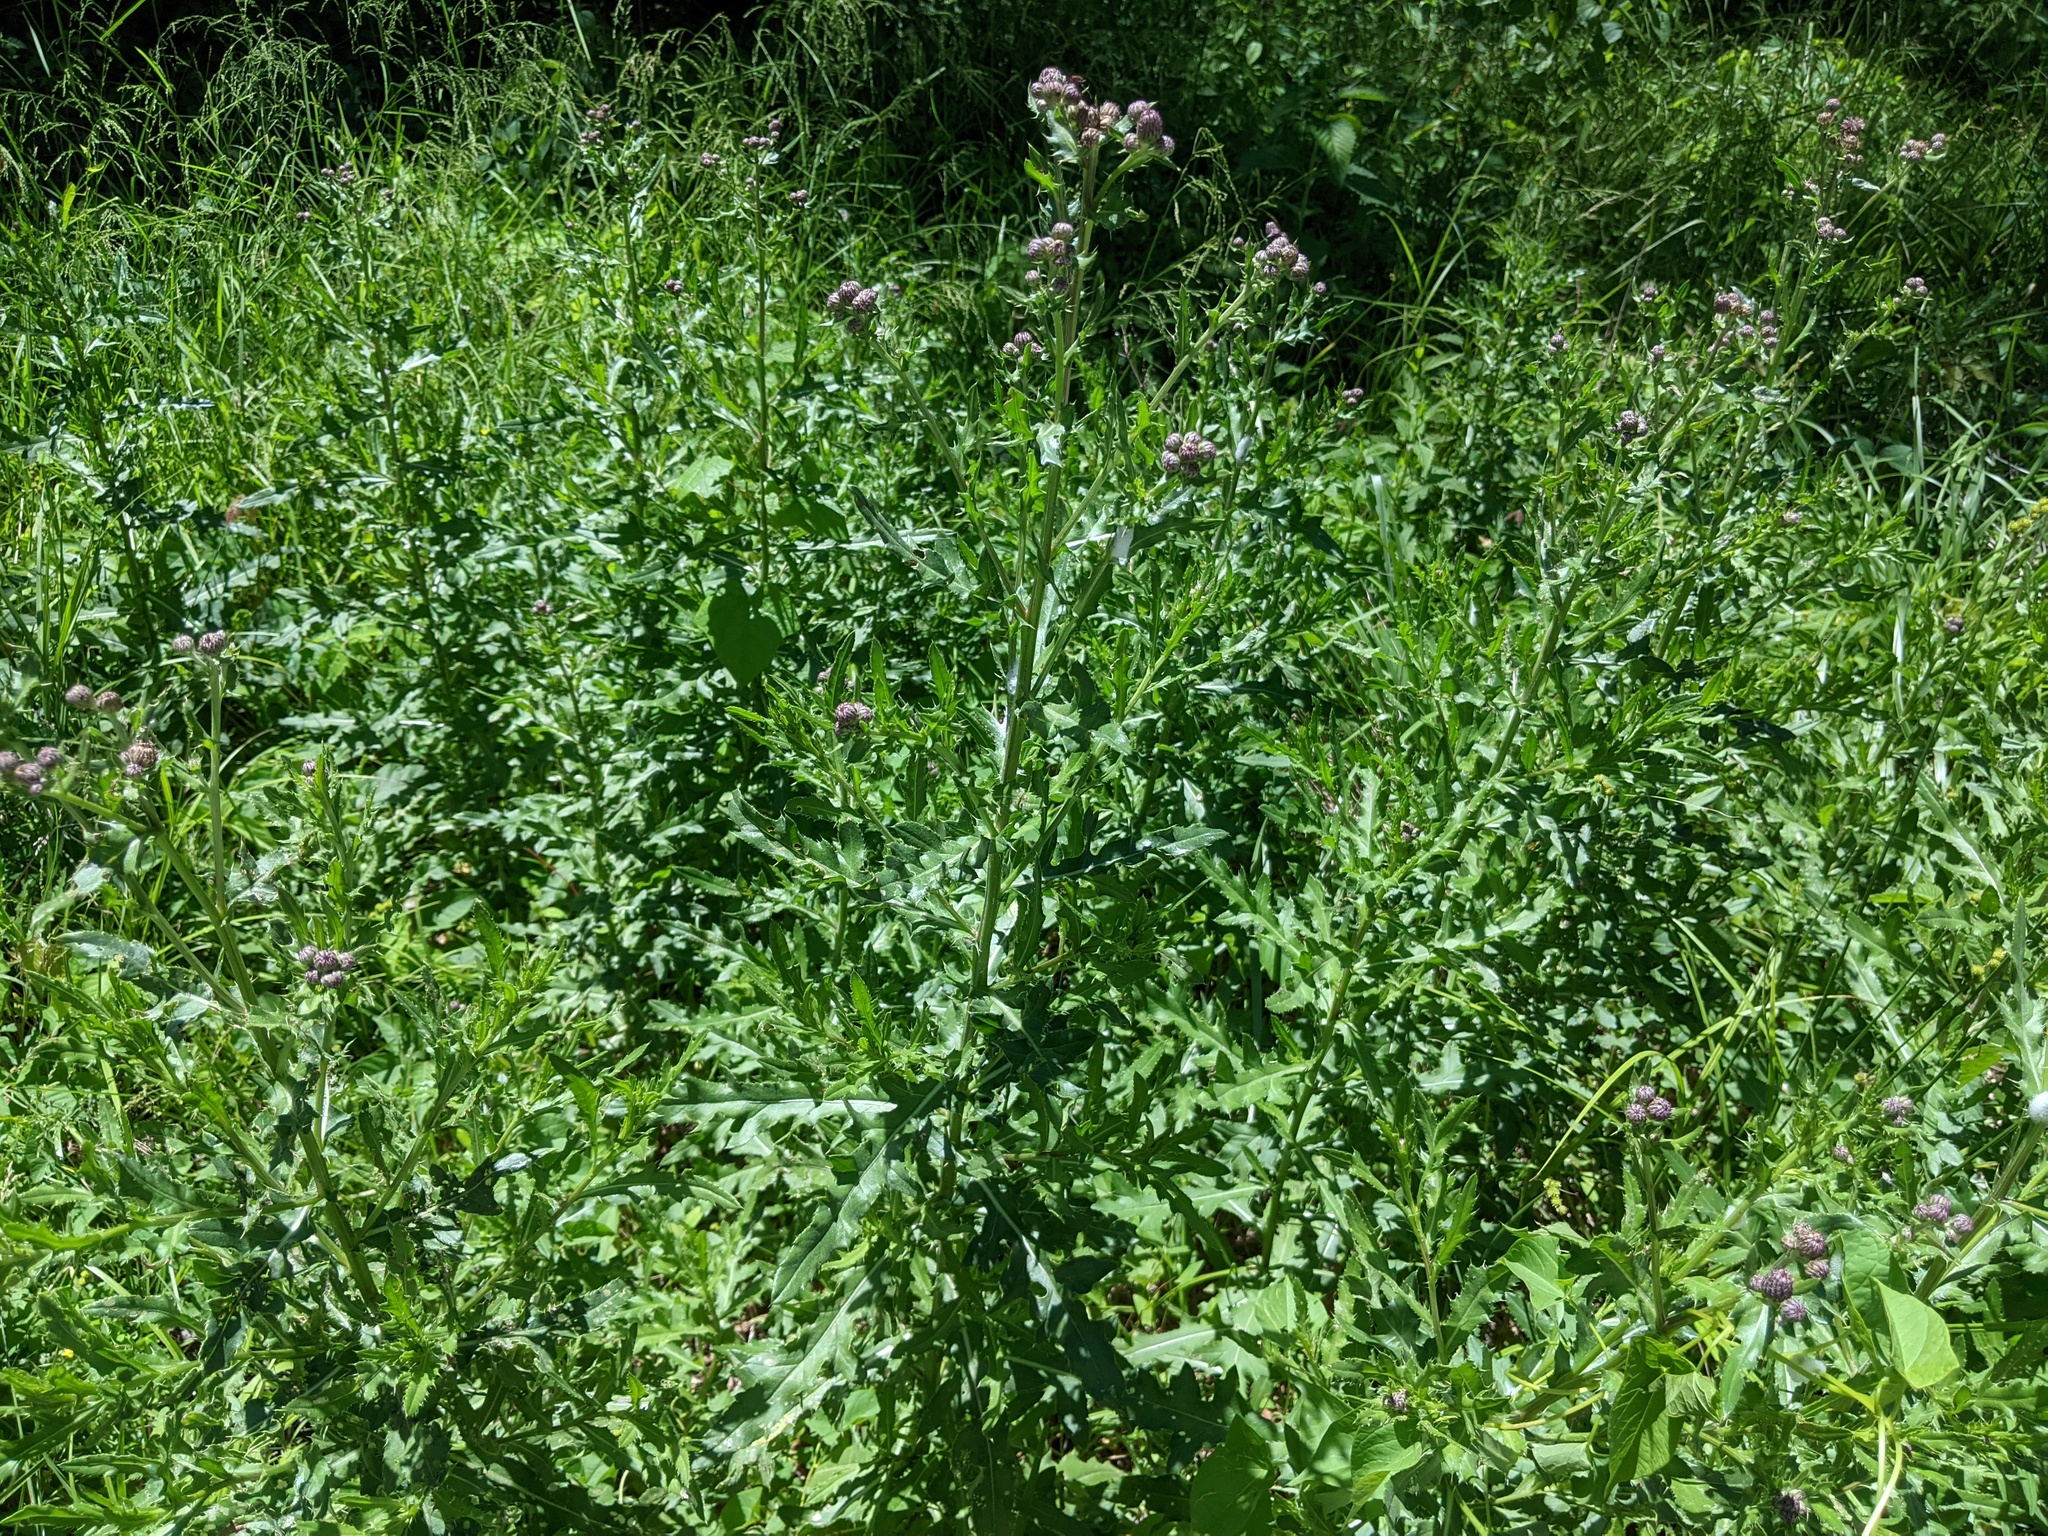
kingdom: Plantae
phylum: Tracheophyta
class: Magnoliopsida
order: Asterales
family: Asteraceae
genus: Cirsium
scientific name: Cirsium arvense
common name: Creeping thistle
